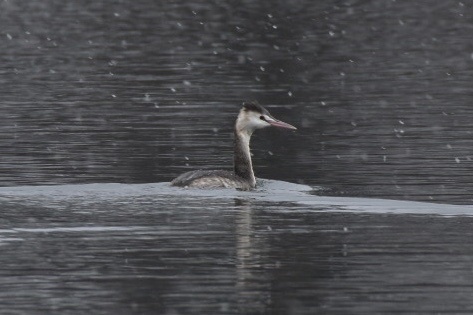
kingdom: Animalia
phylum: Chordata
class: Aves
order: Podicipediformes
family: Podicipedidae
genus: Podiceps
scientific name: Podiceps cristatus
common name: Great crested grebe
